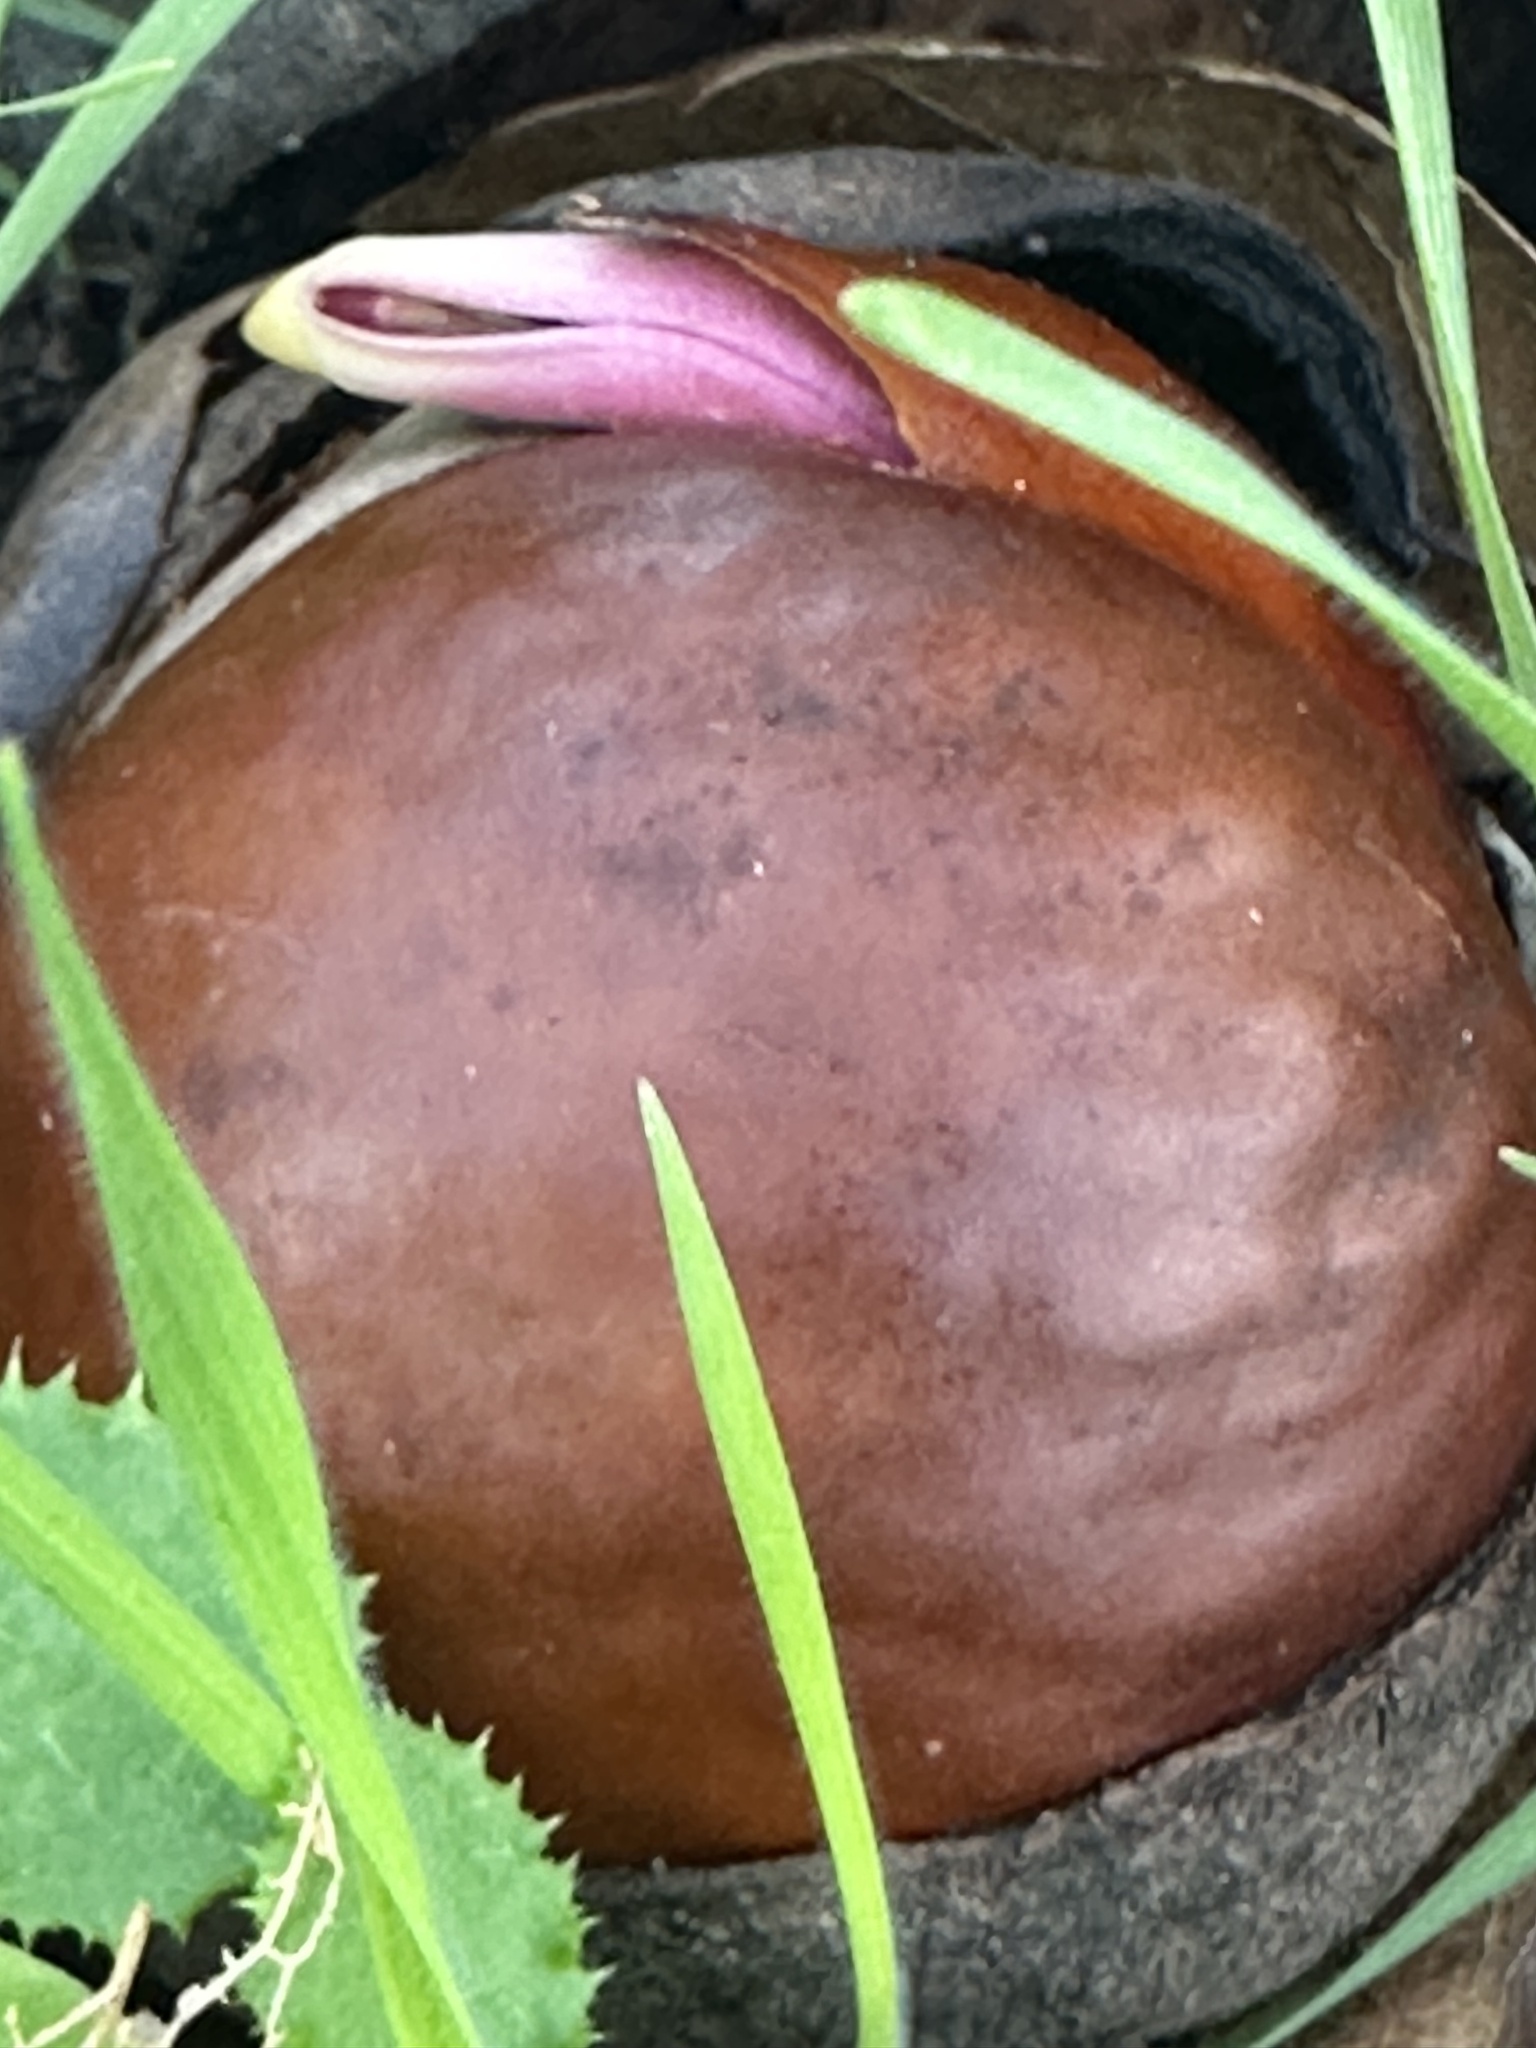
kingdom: Plantae
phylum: Tracheophyta
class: Magnoliopsida
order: Sapindales
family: Sapindaceae
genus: Aesculus
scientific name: Aesculus californica
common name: California buckeye
